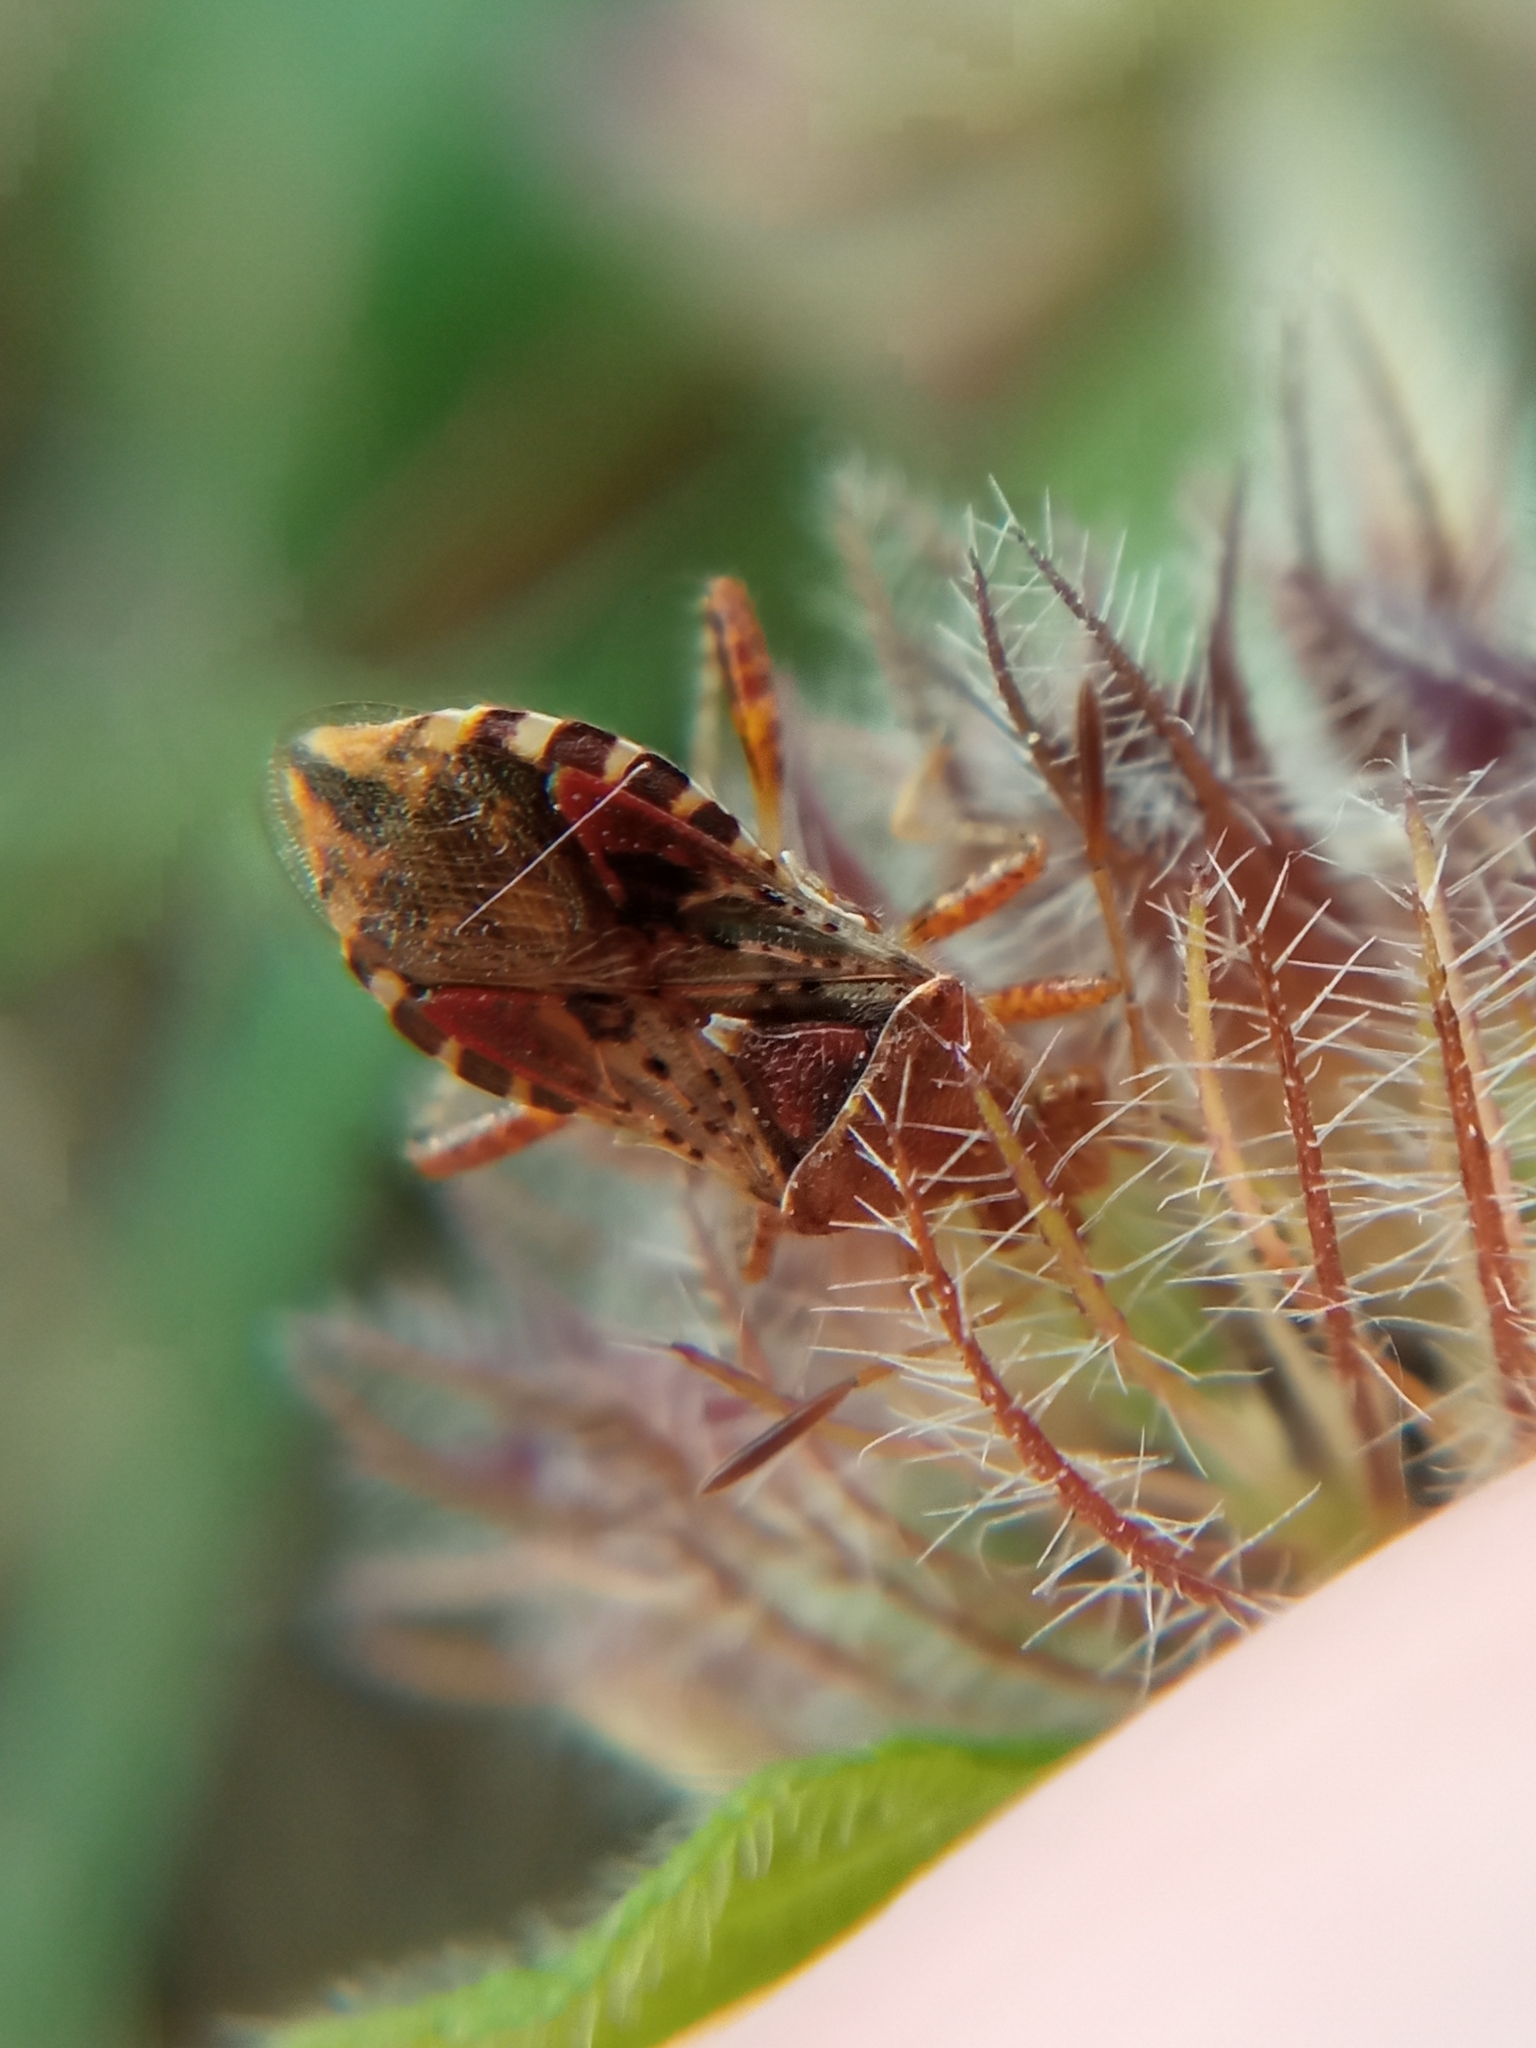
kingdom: Animalia
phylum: Arthropoda
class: Insecta
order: Hemiptera
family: Rhopalidae
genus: Rhopalus
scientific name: Rhopalus subrufus
